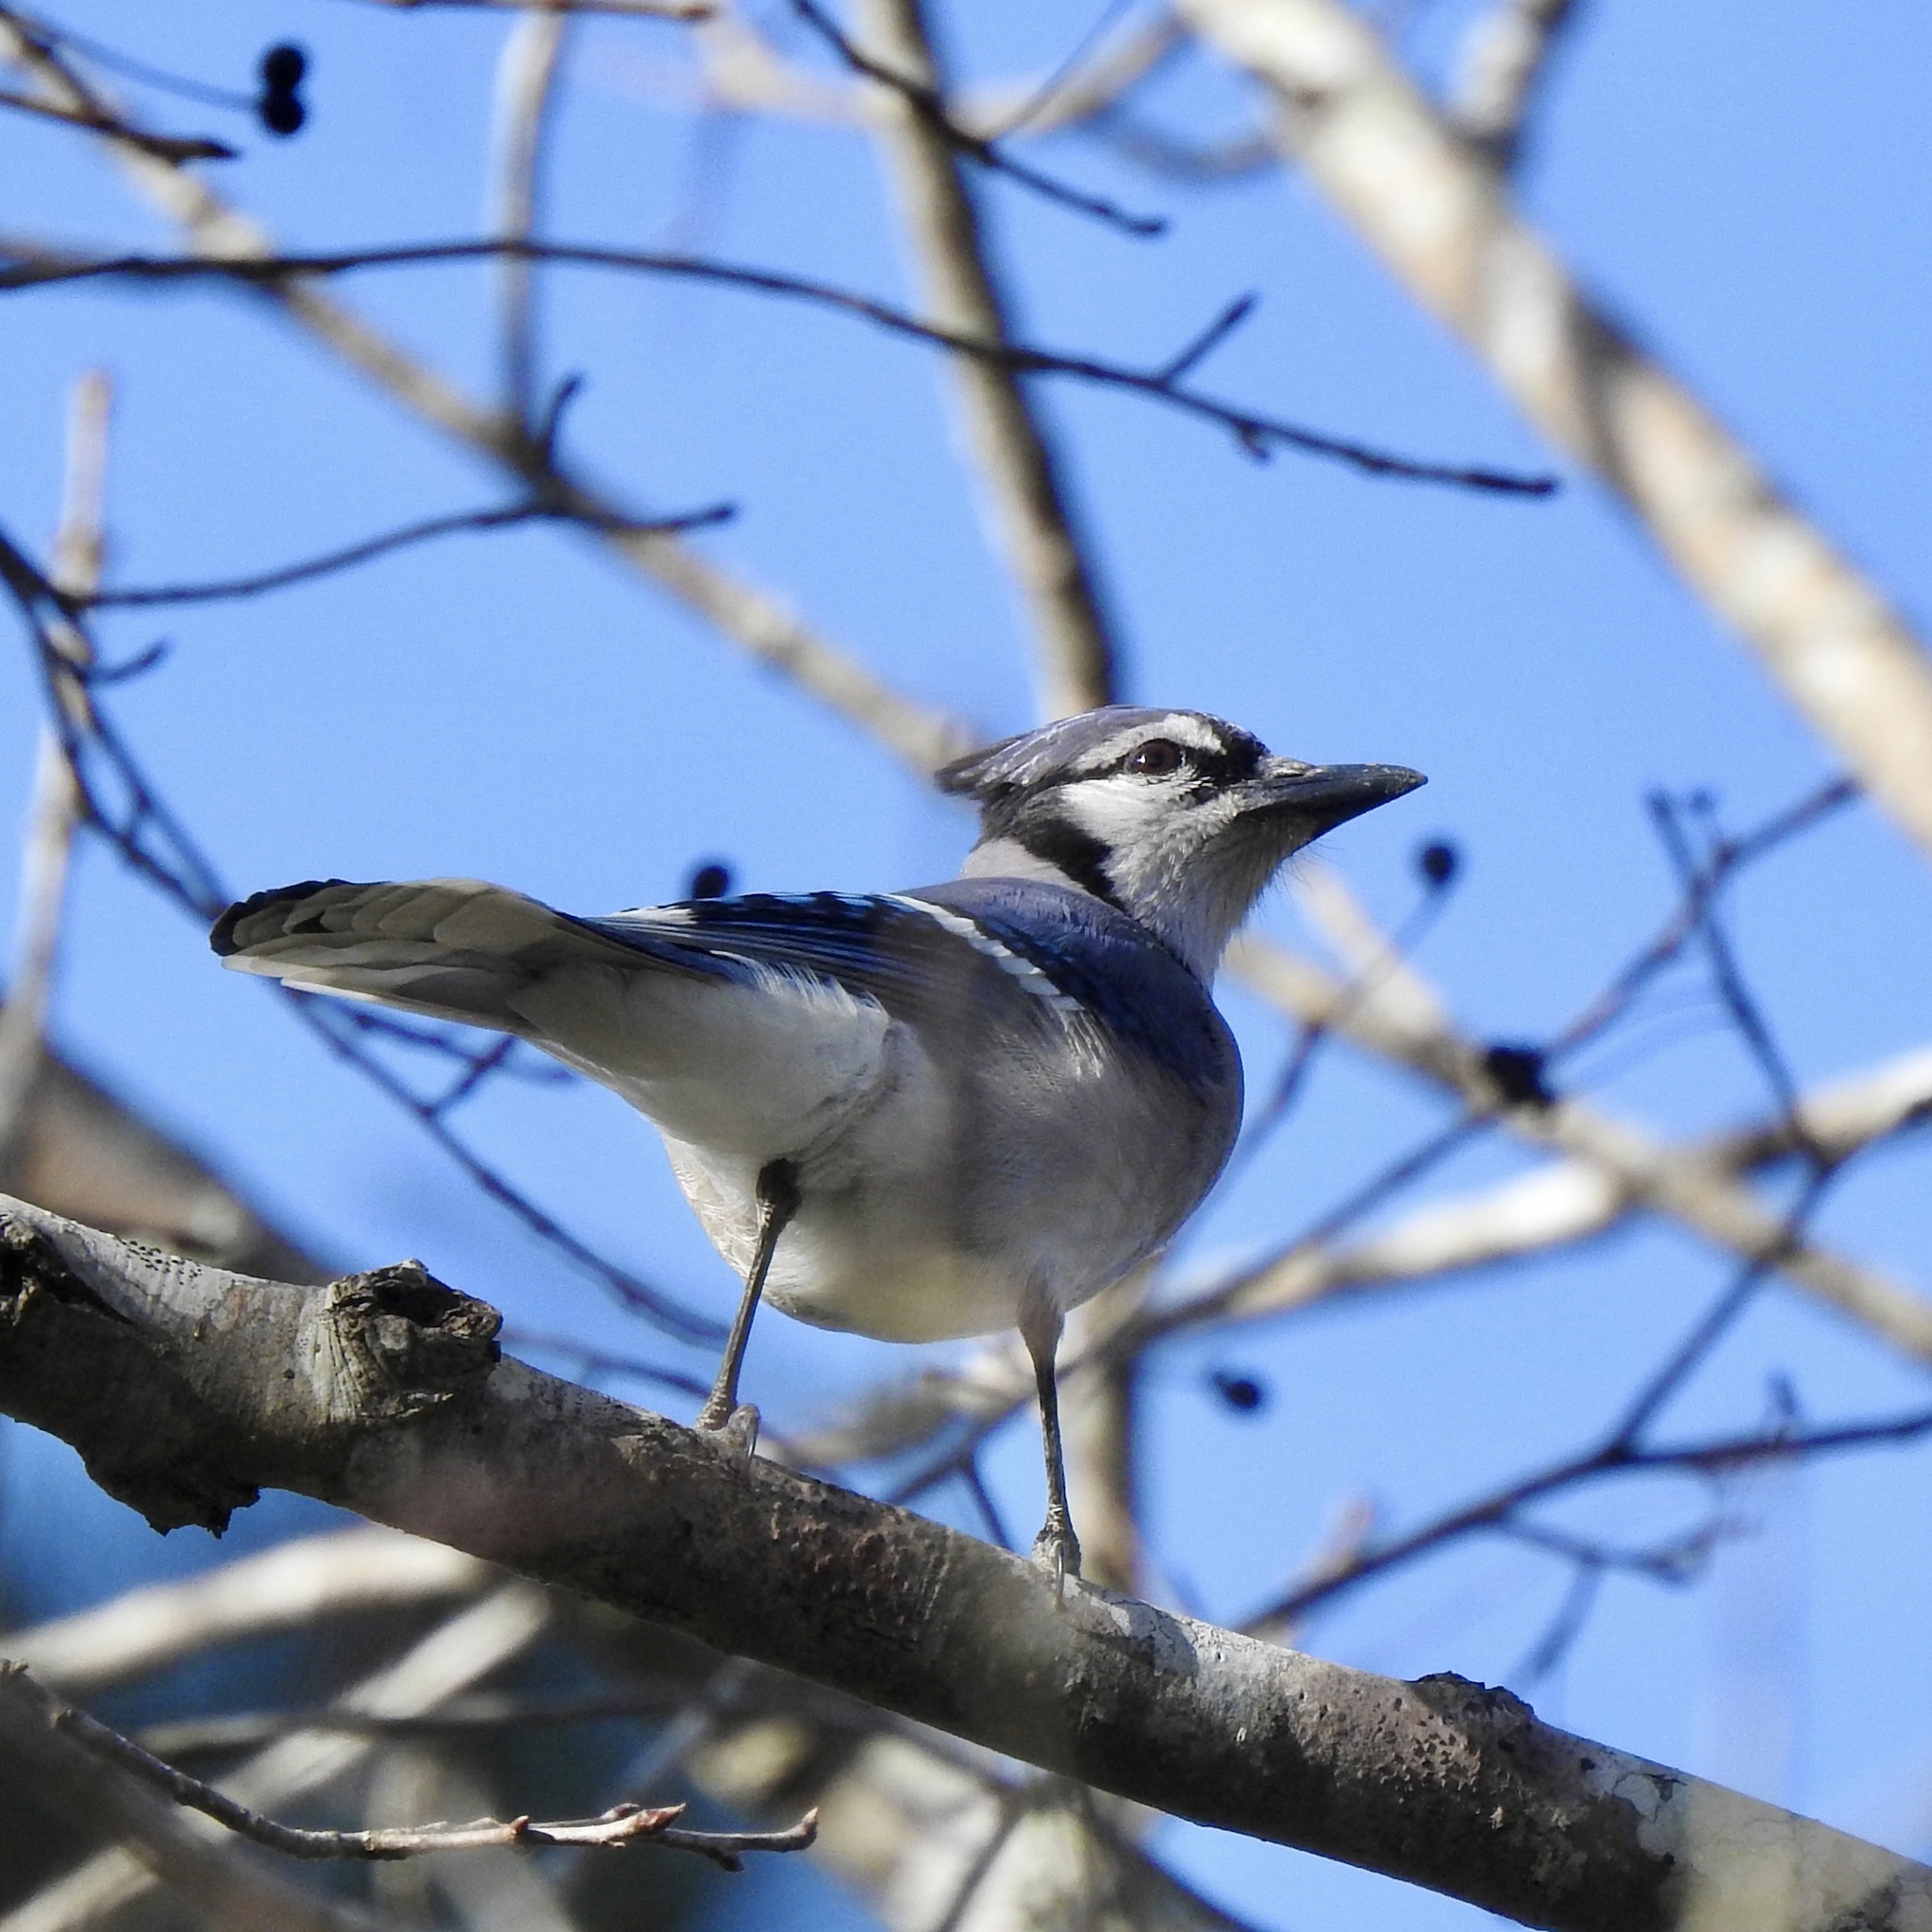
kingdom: Animalia
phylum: Chordata
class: Aves
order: Passeriformes
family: Corvidae
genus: Cyanocitta
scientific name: Cyanocitta cristata
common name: Blue jay
